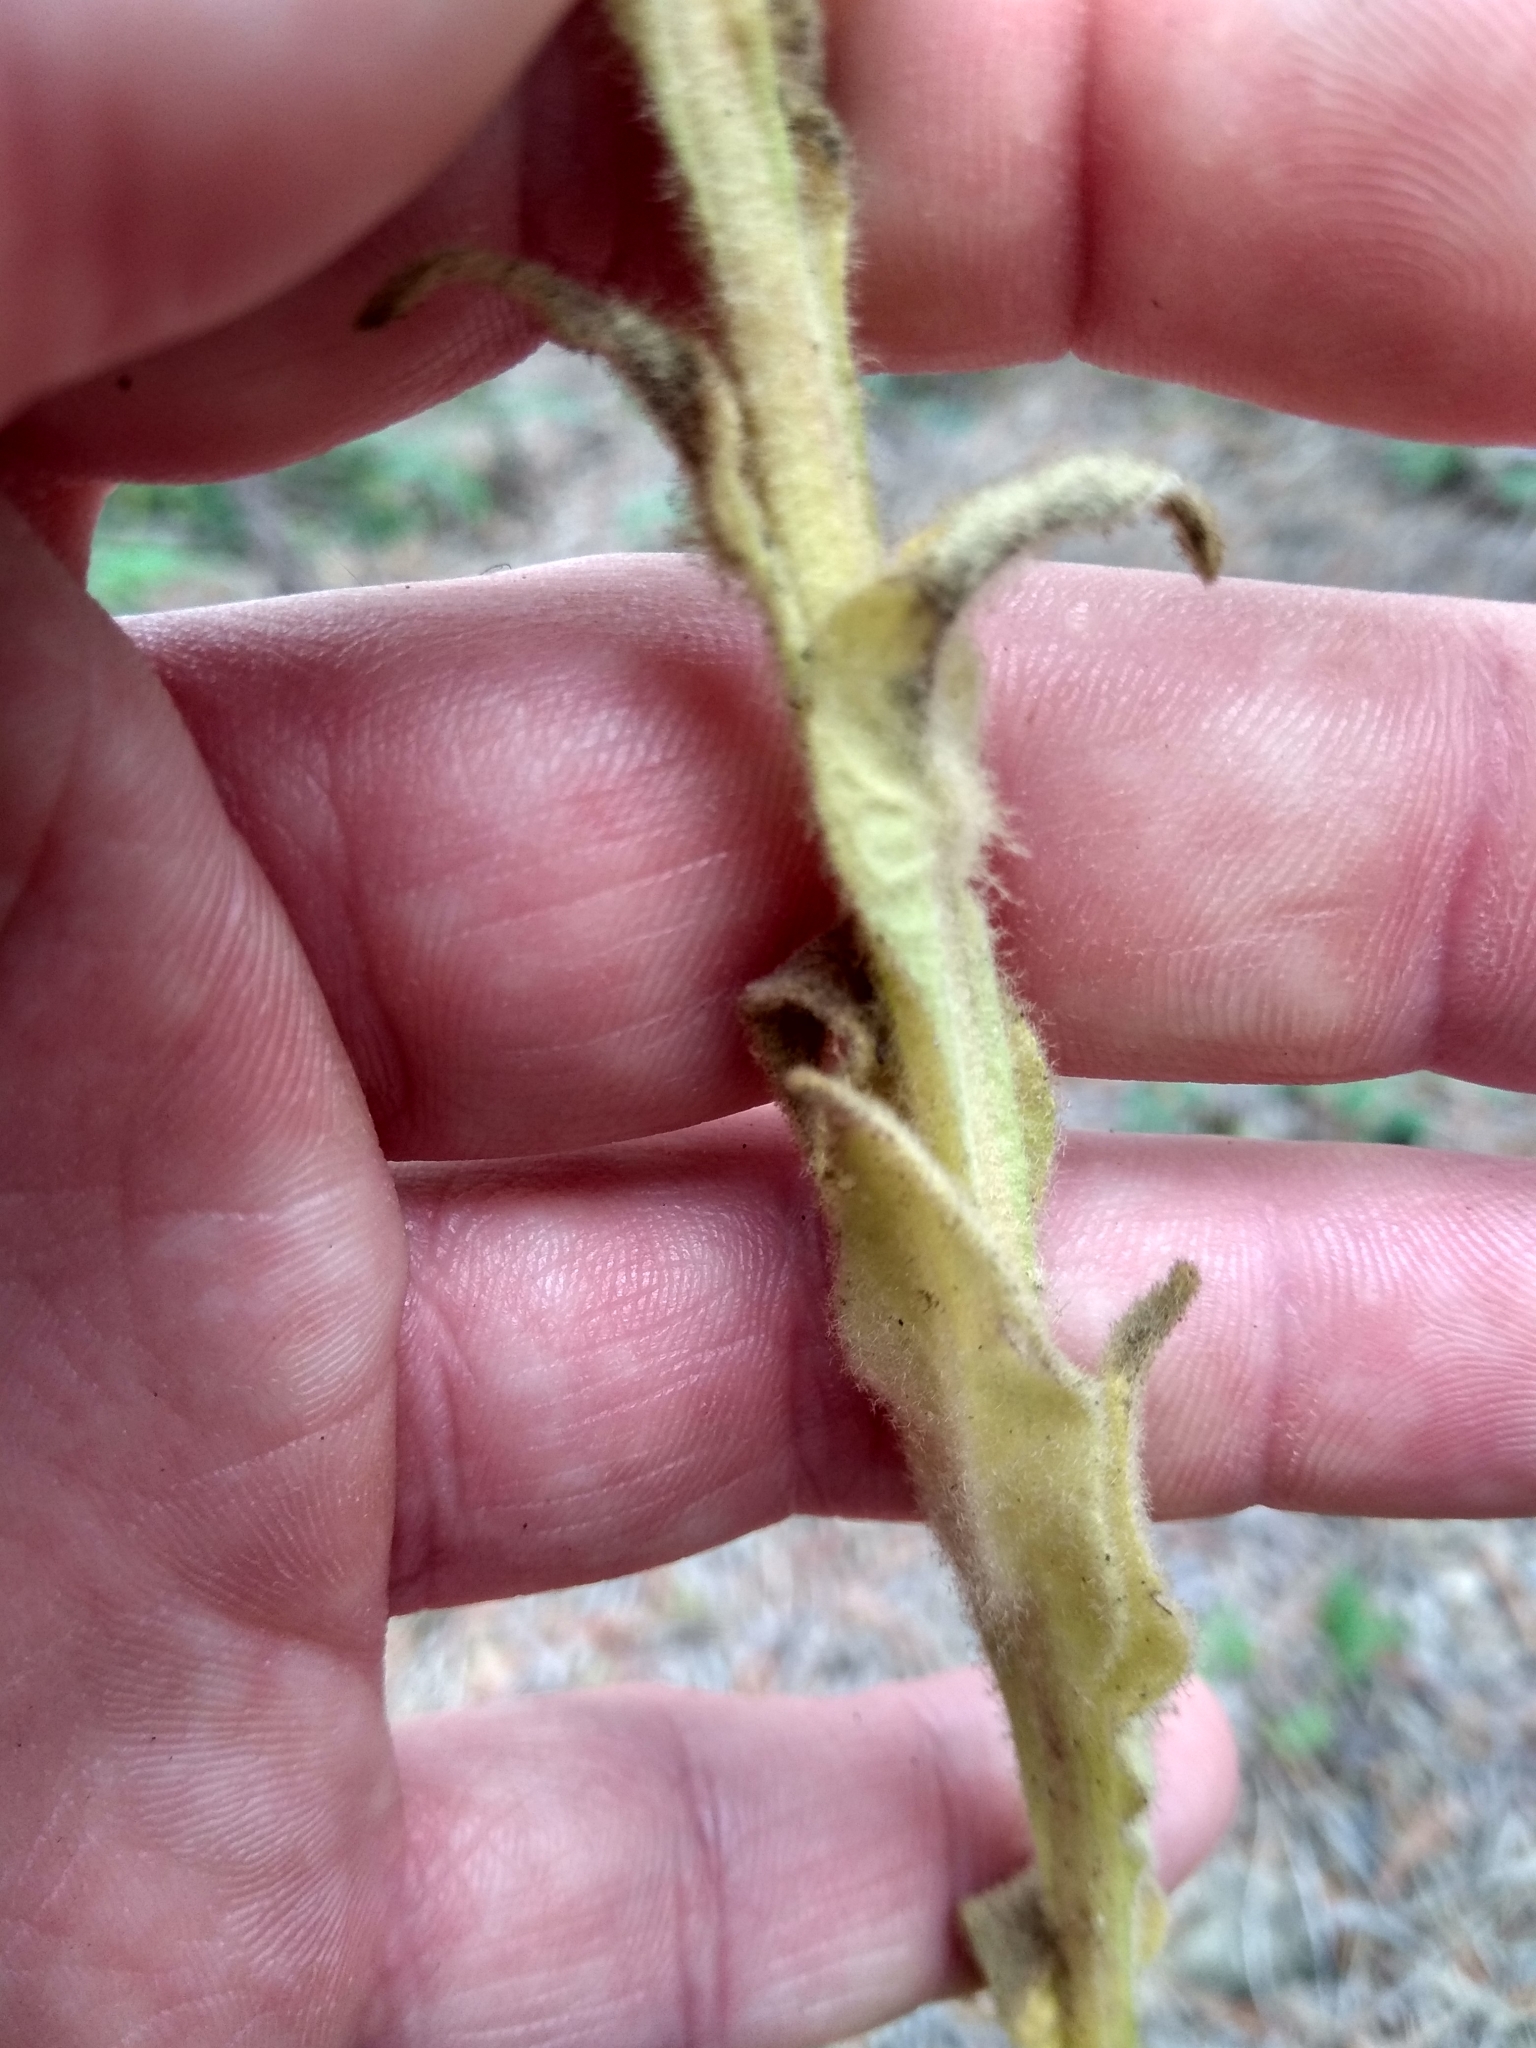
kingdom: Plantae
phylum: Tracheophyta
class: Magnoliopsida
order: Lamiales
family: Scrophulariaceae
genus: Verbascum
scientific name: Verbascum thapsus
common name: Common mullein
